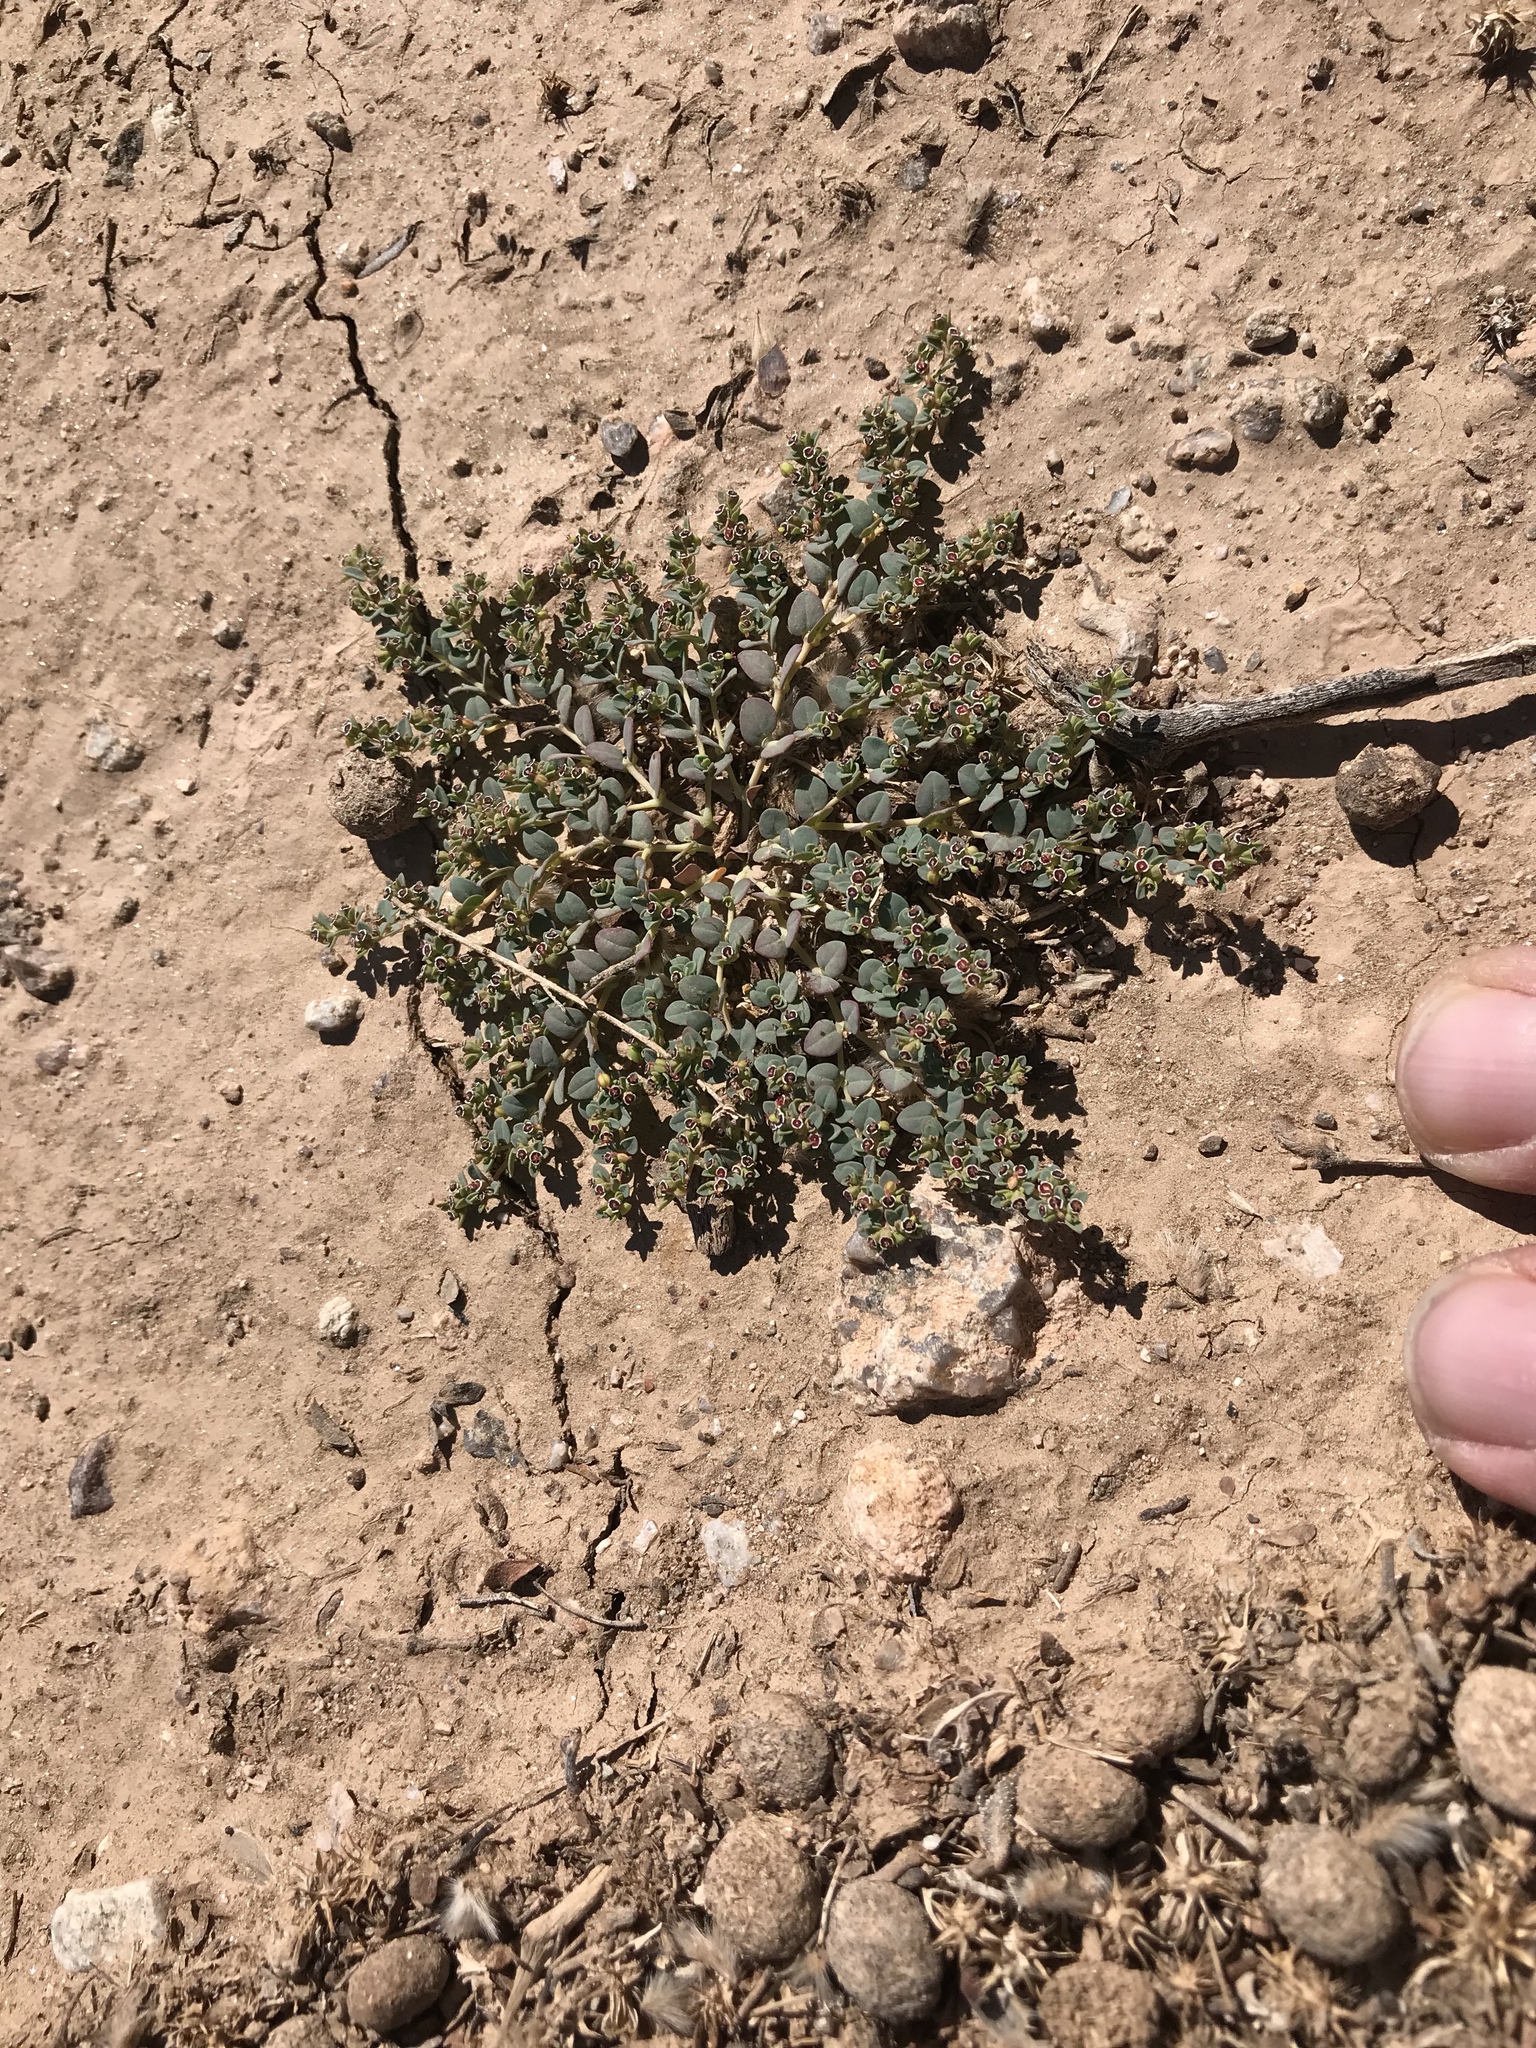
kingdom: Plantae
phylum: Tracheophyta
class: Magnoliopsida
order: Malpighiales
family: Euphorbiaceae
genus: Euphorbia
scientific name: Euphorbia polycarpa
